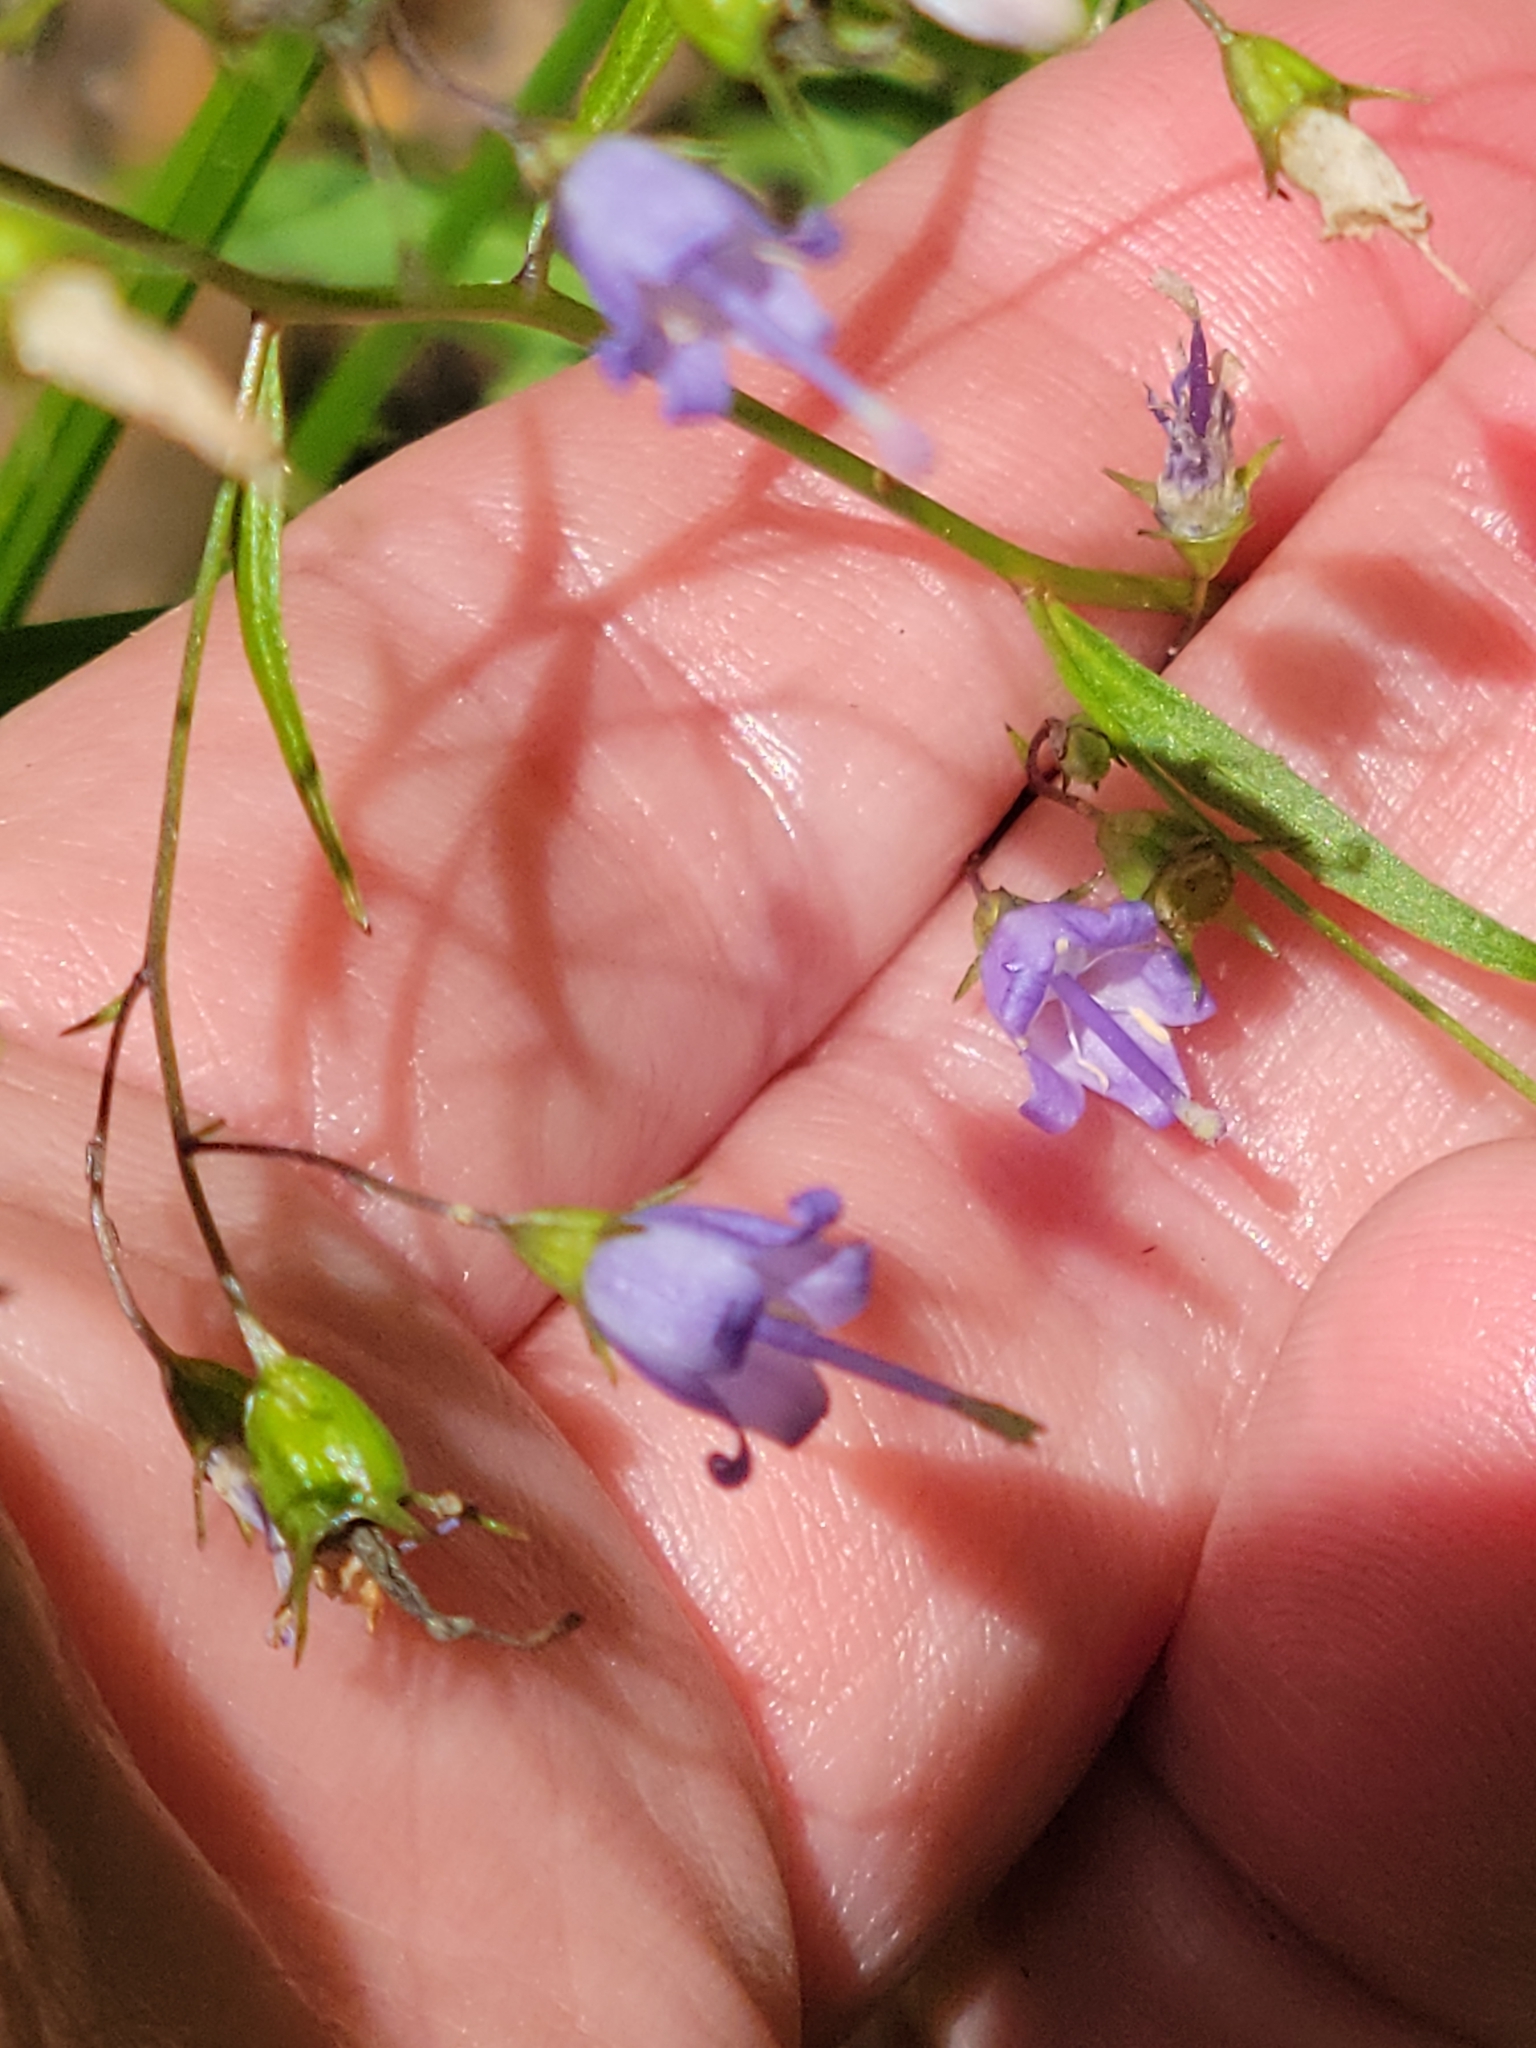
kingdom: Plantae
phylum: Tracheophyta
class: Magnoliopsida
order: Asterales
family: Campanulaceae
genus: Campanula
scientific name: Campanula divaricata
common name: Appalachian bellflower
